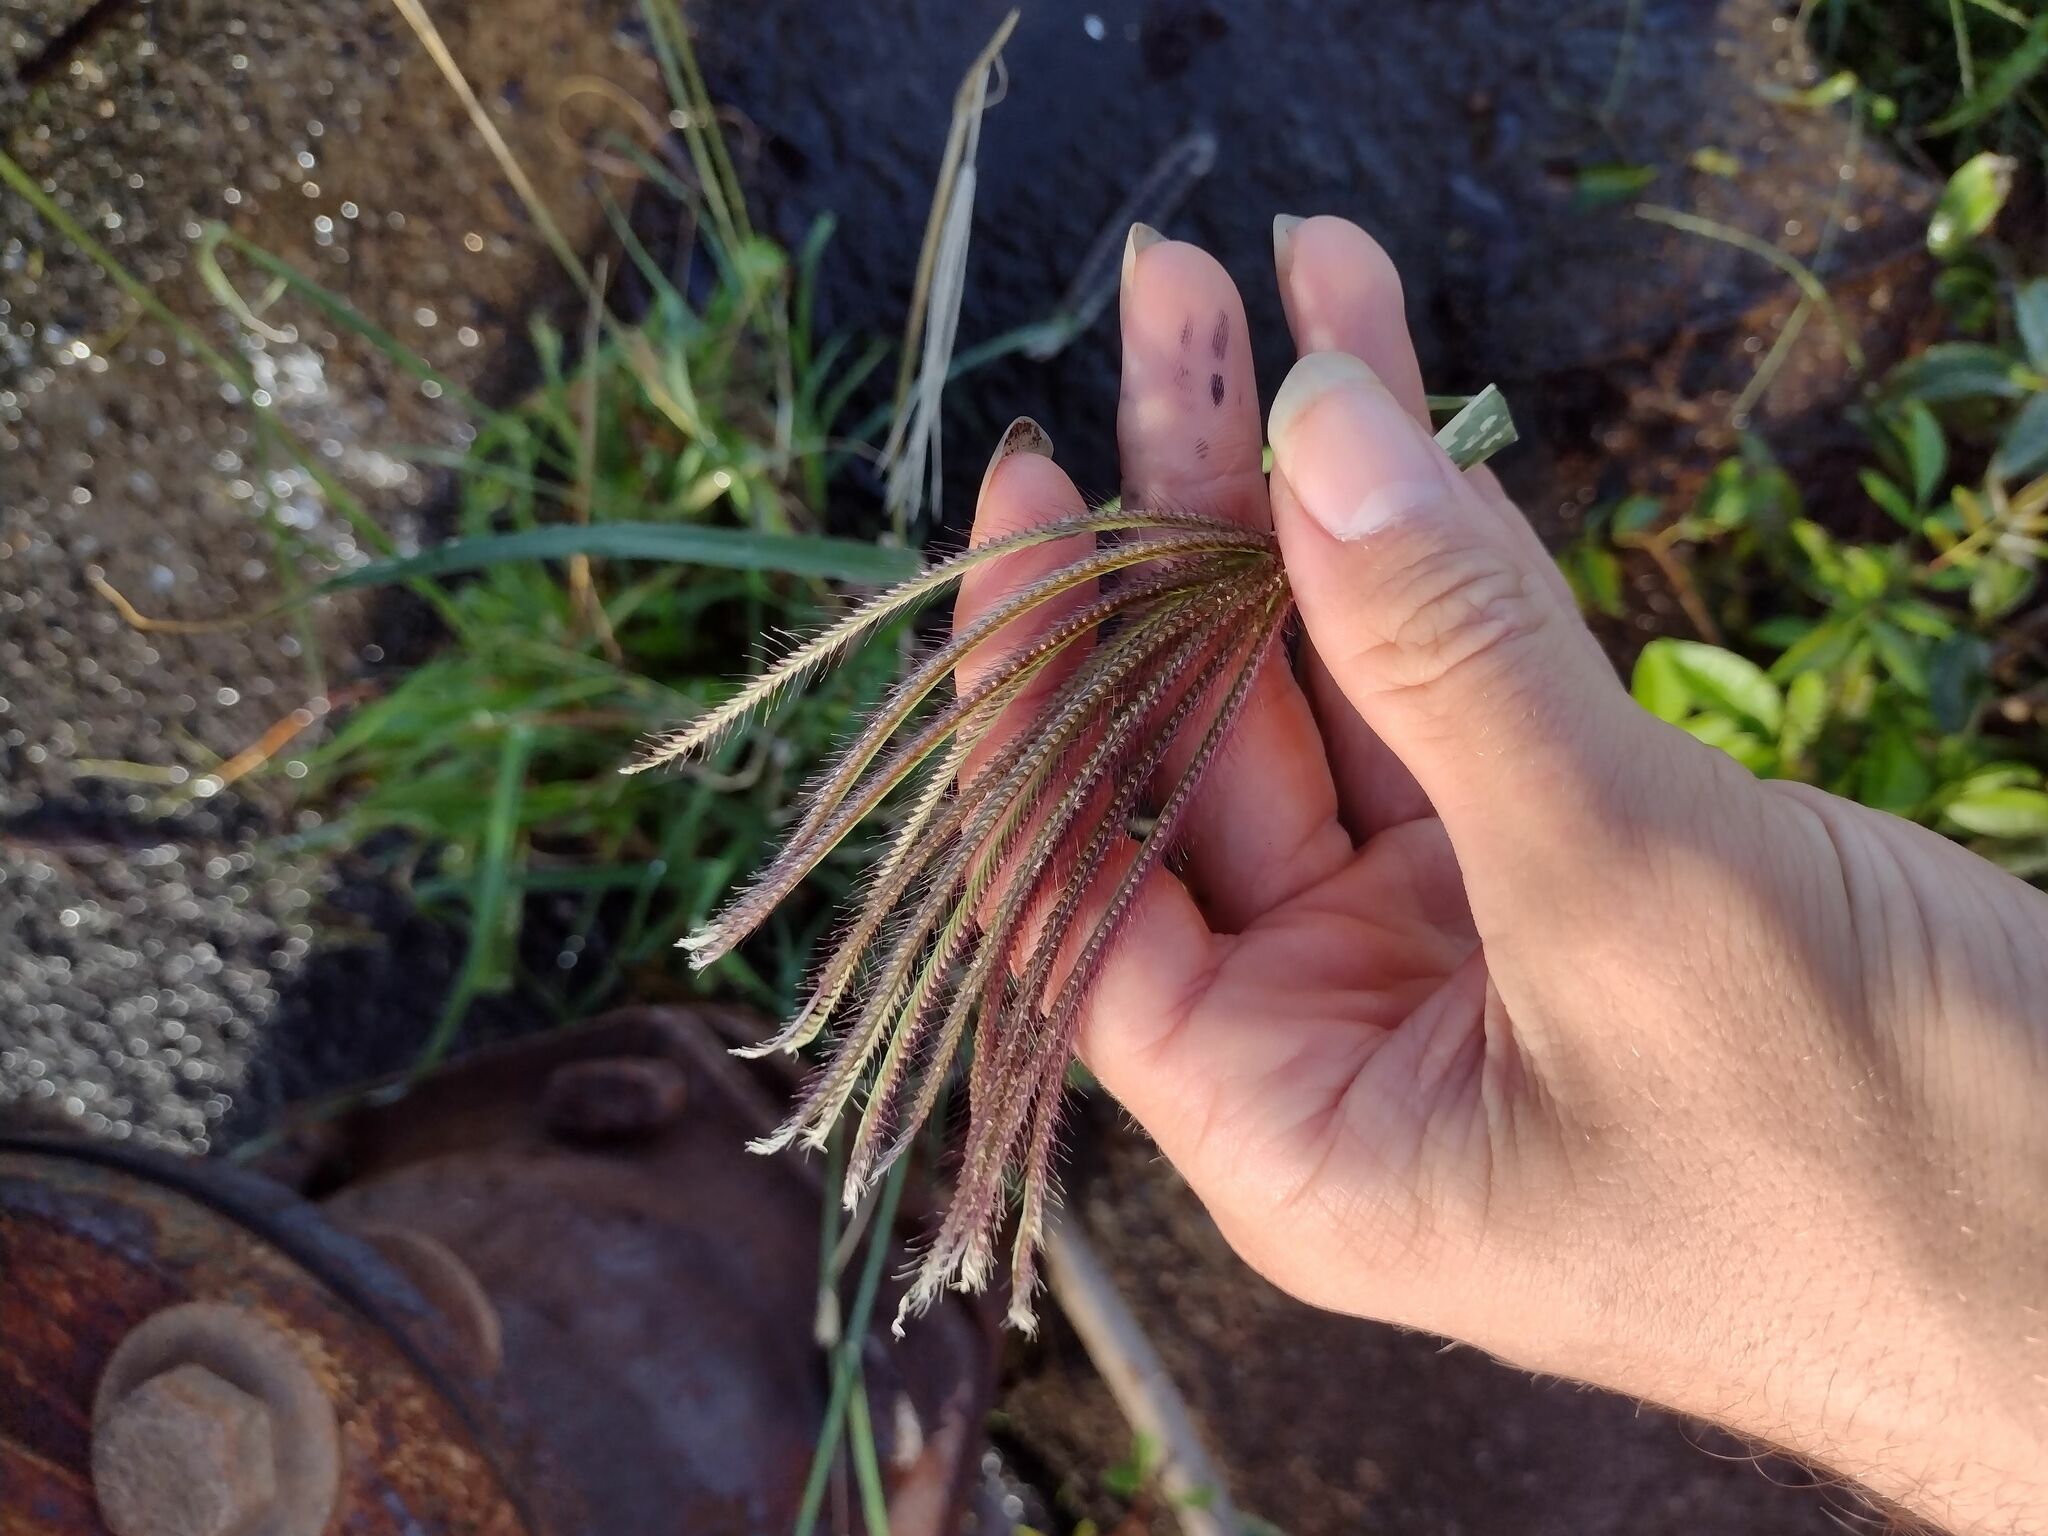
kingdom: Plantae
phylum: Tracheophyta
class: Liliopsida
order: Poales
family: Poaceae
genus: Chloris
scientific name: Chloris barbata
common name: Swollen fingergrass
